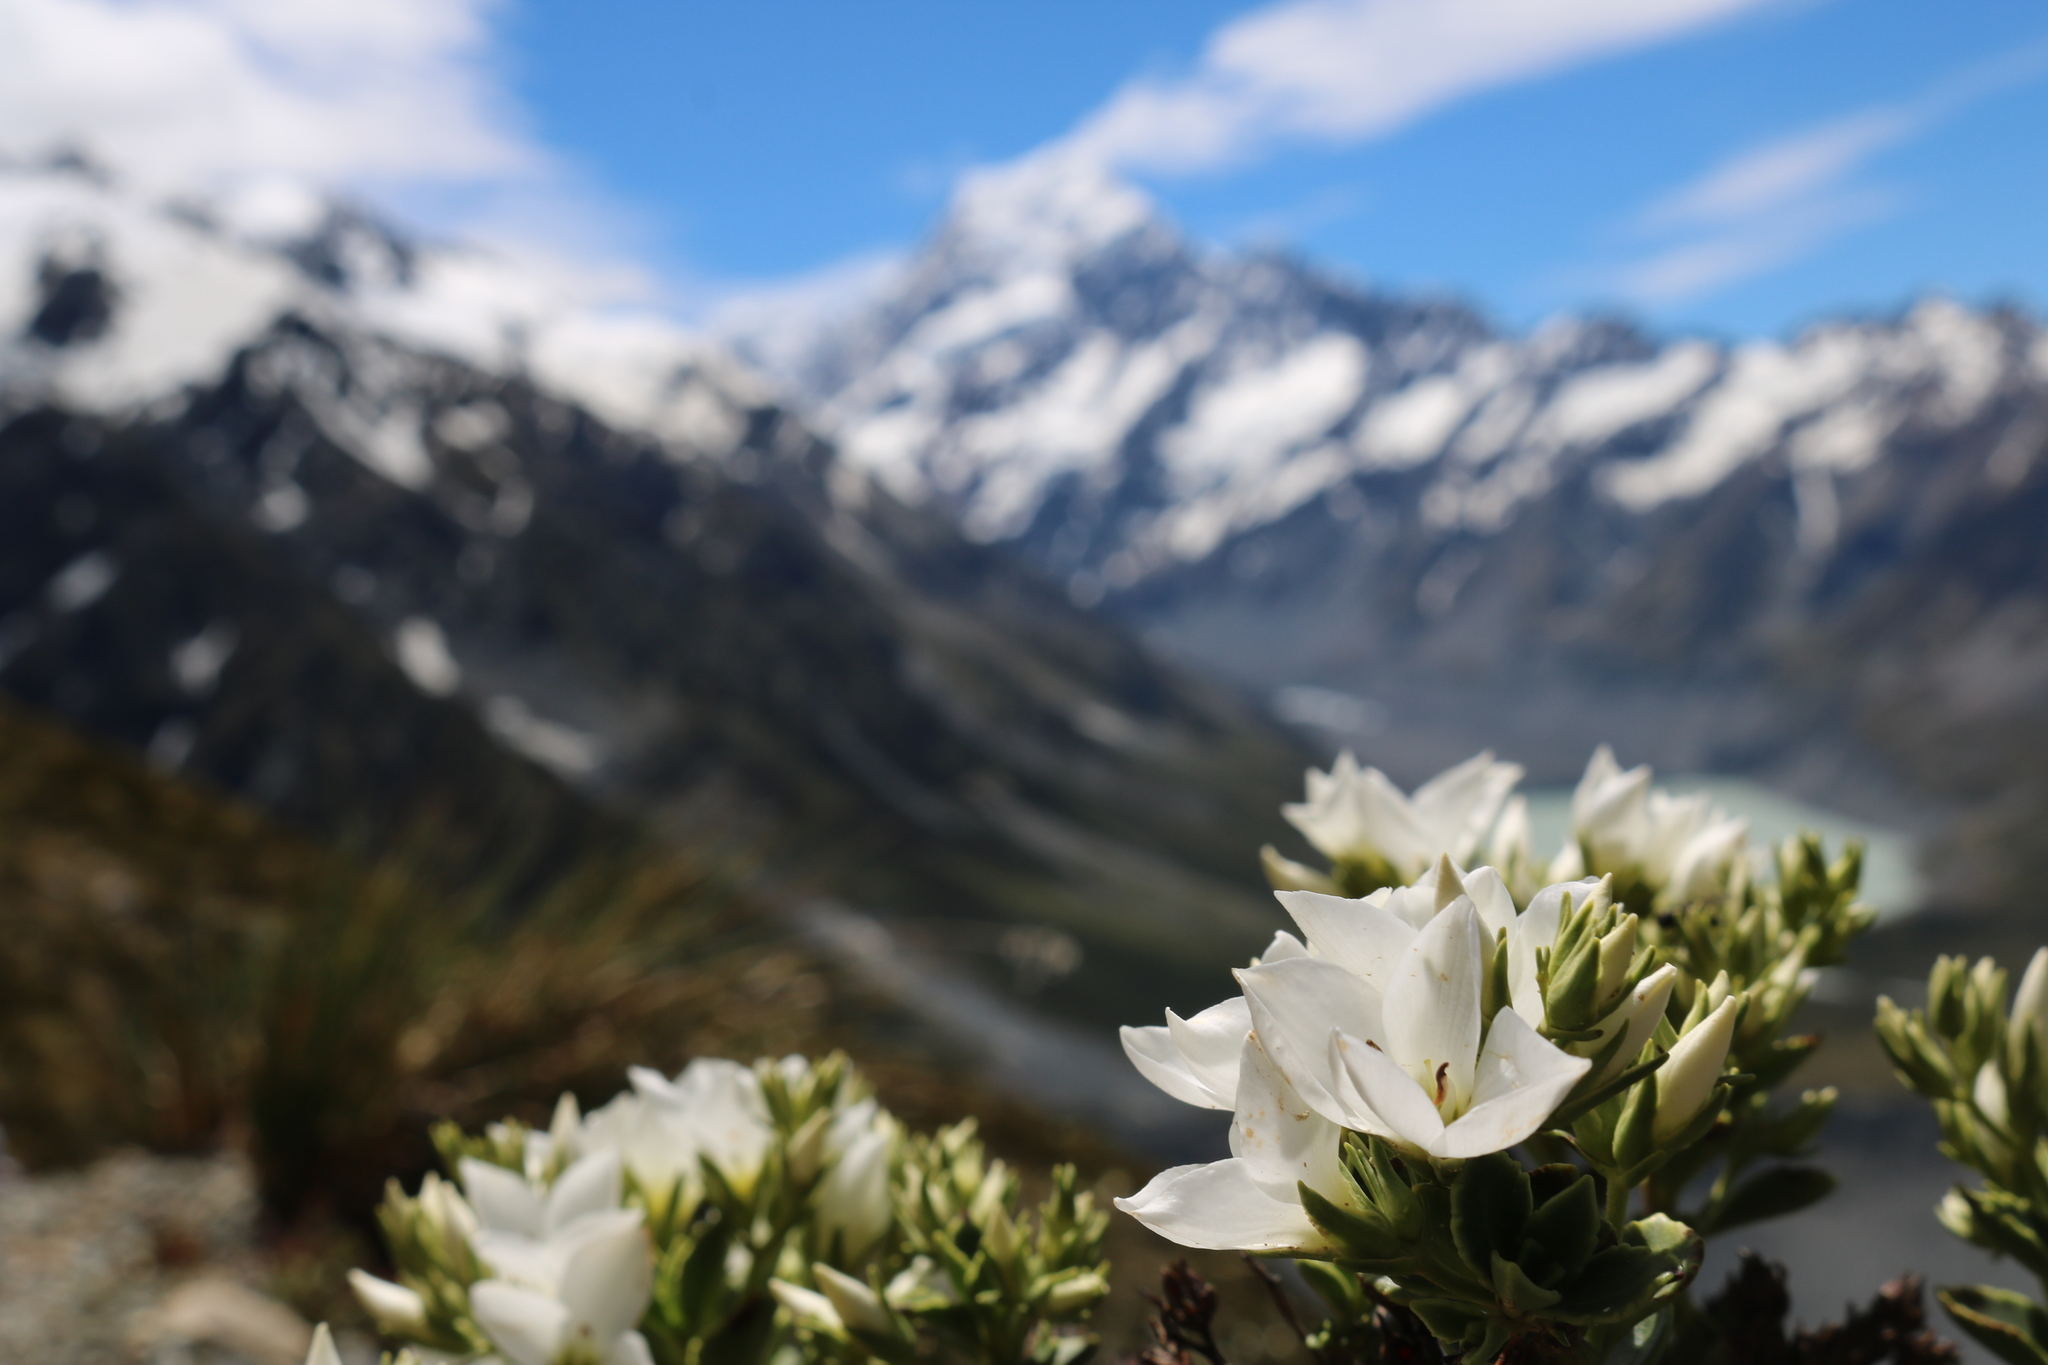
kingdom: Plantae
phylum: Tracheophyta
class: Magnoliopsida
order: Lamiales
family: Plantaginaceae
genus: Veronica
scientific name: Veronica macrantha
